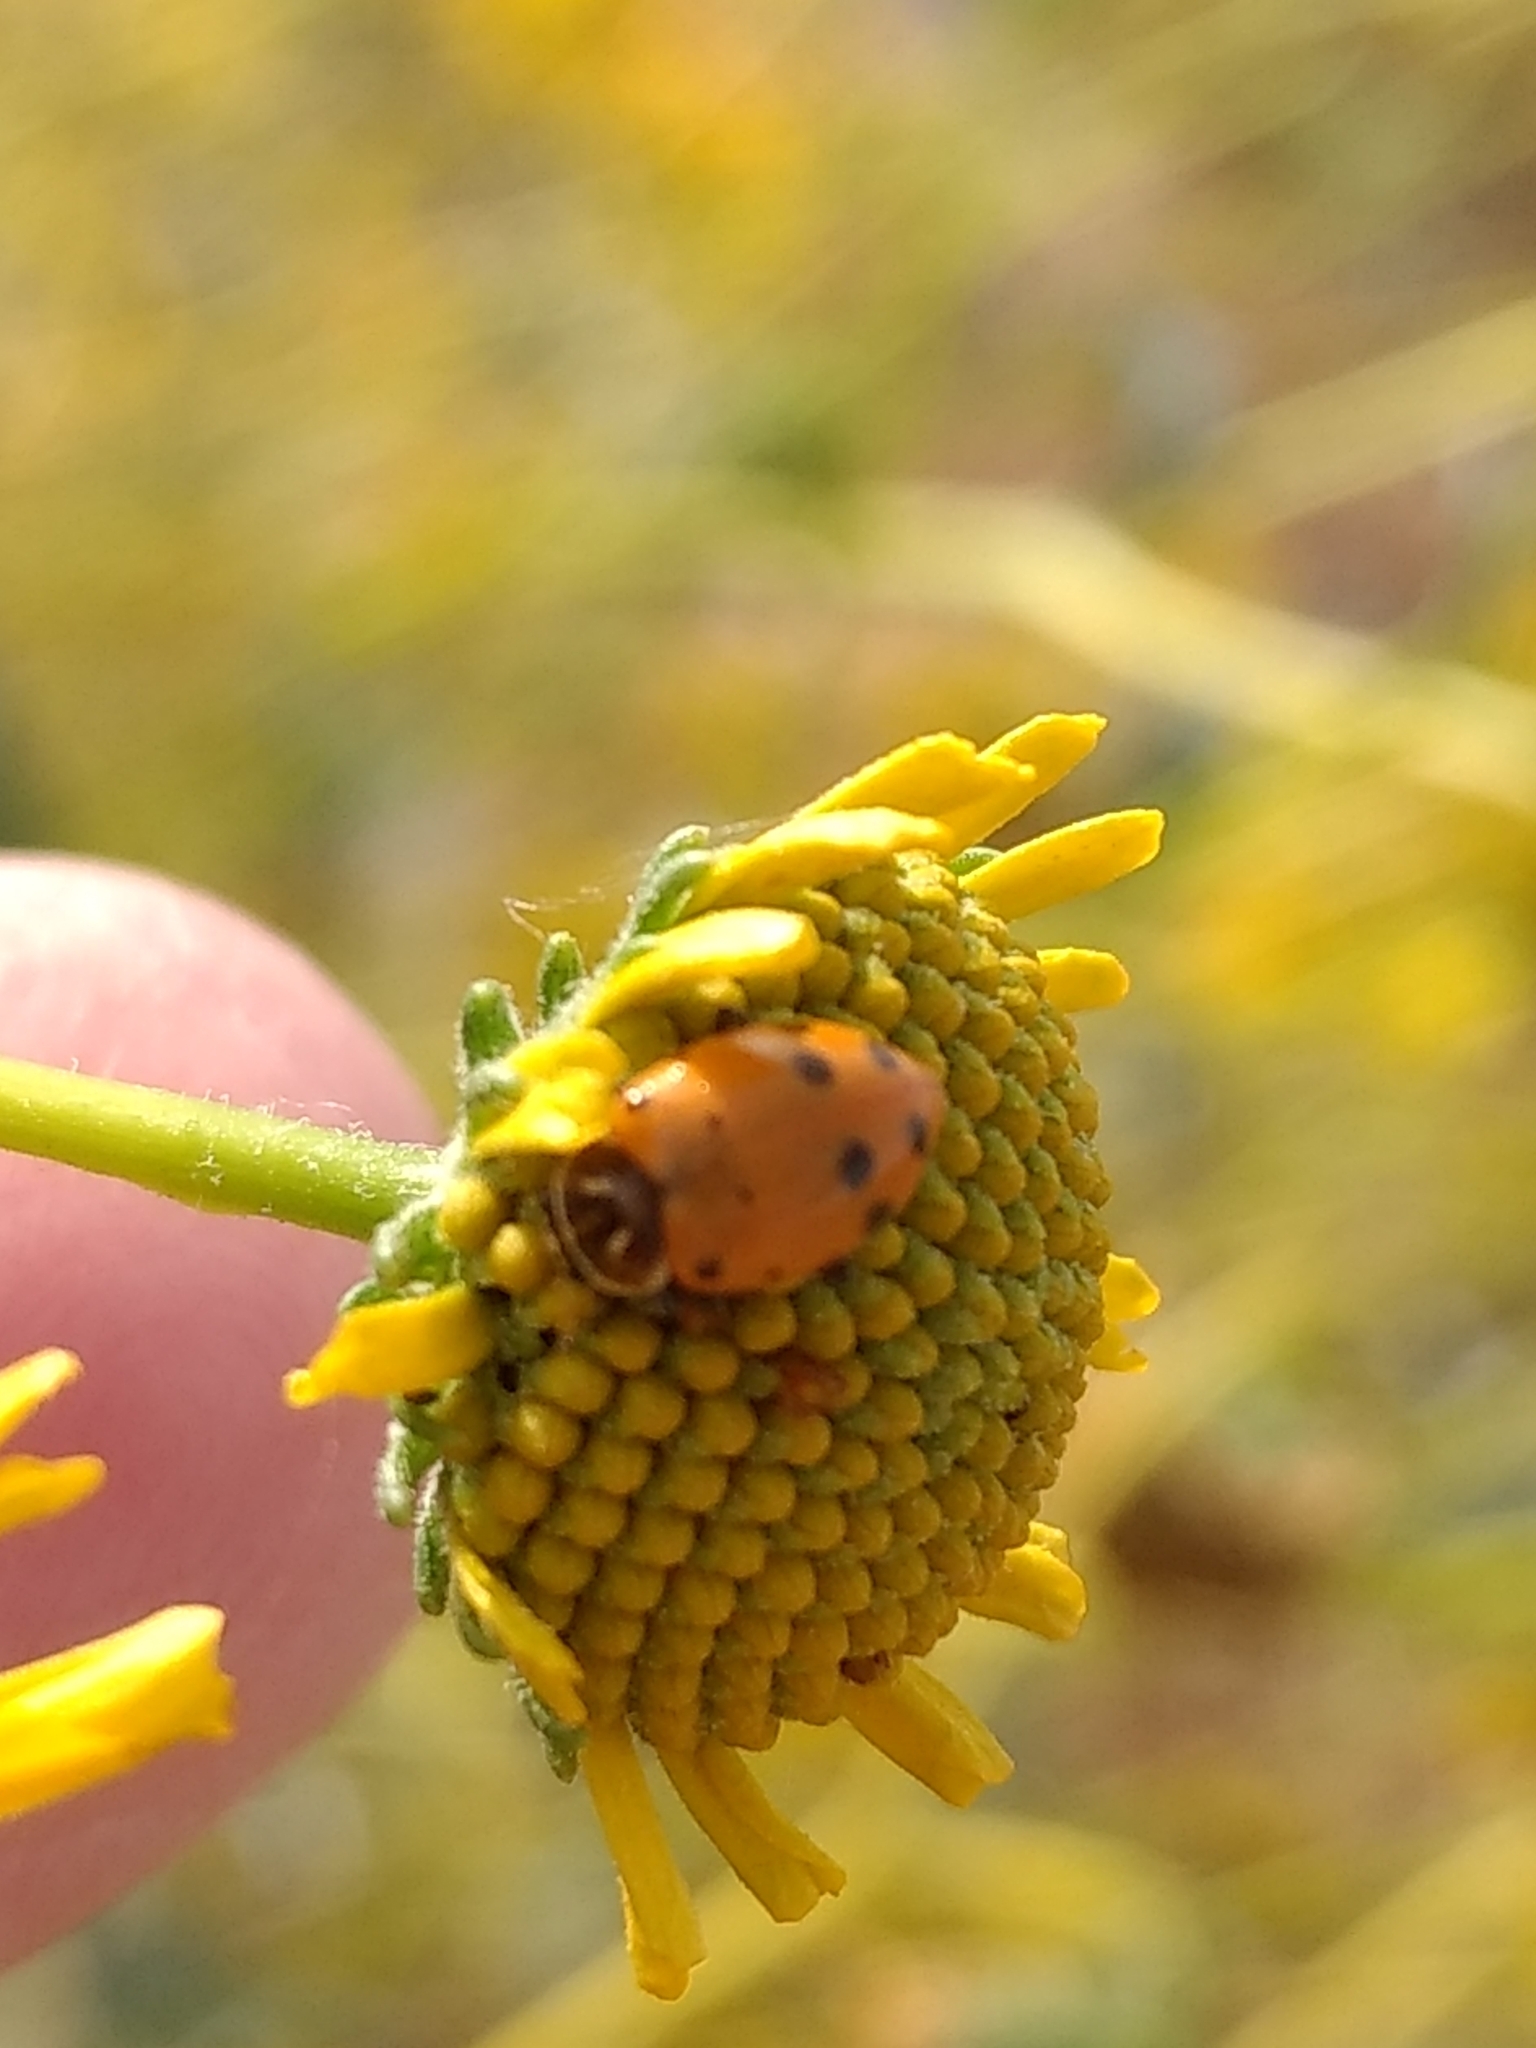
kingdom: Animalia
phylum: Arthropoda
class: Insecta
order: Coleoptera
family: Coccinellidae
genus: Hippodamia
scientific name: Hippodamia convergens
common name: Convergent lady beetle
